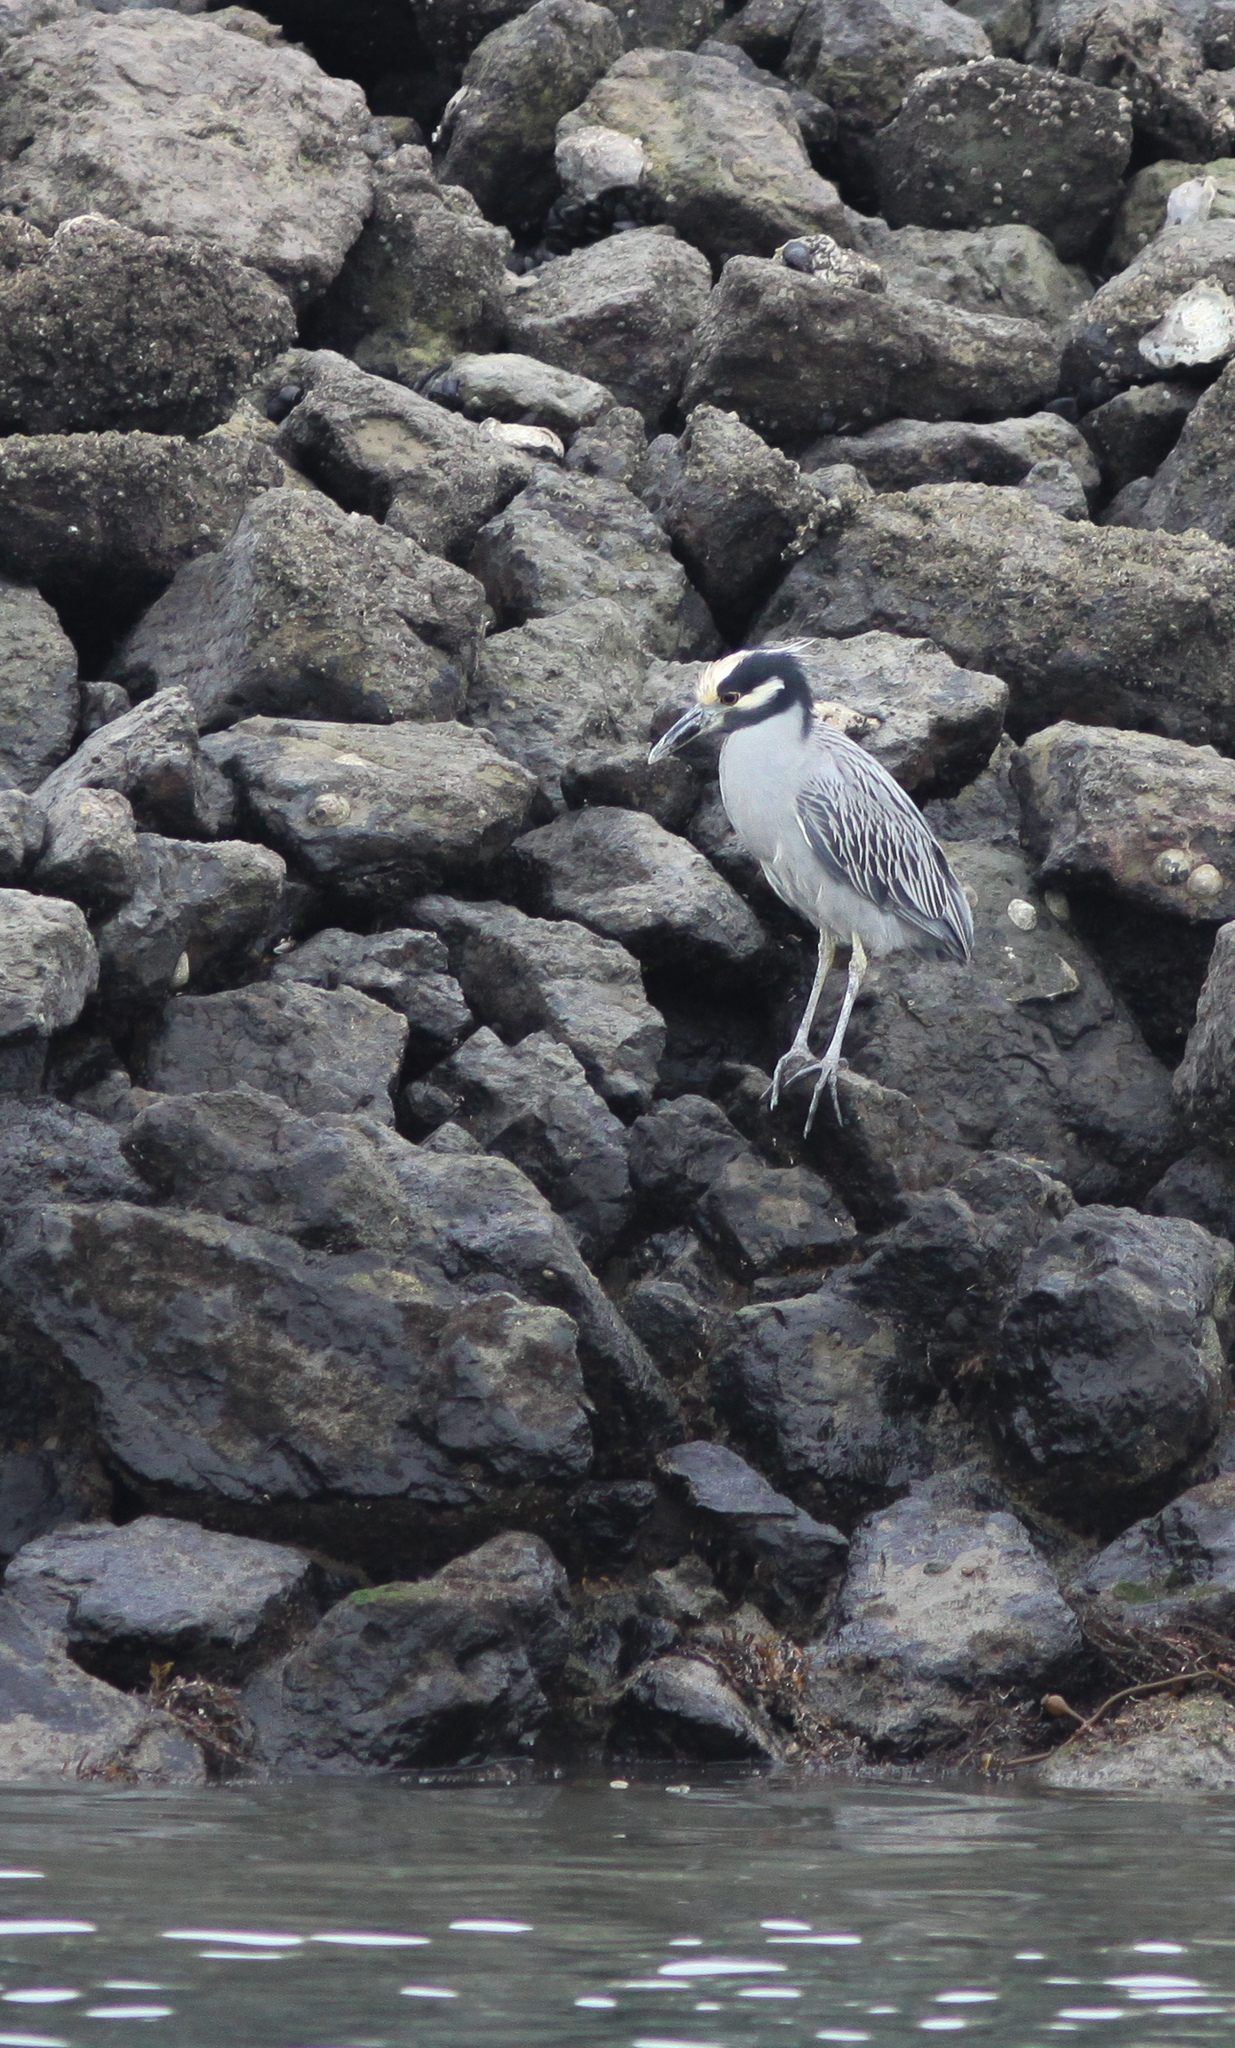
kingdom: Animalia
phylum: Chordata
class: Aves
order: Pelecaniformes
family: Ardeidae
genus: Nyctanassa
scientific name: Nyctanassa violacea
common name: Yellow-crowned night heron
